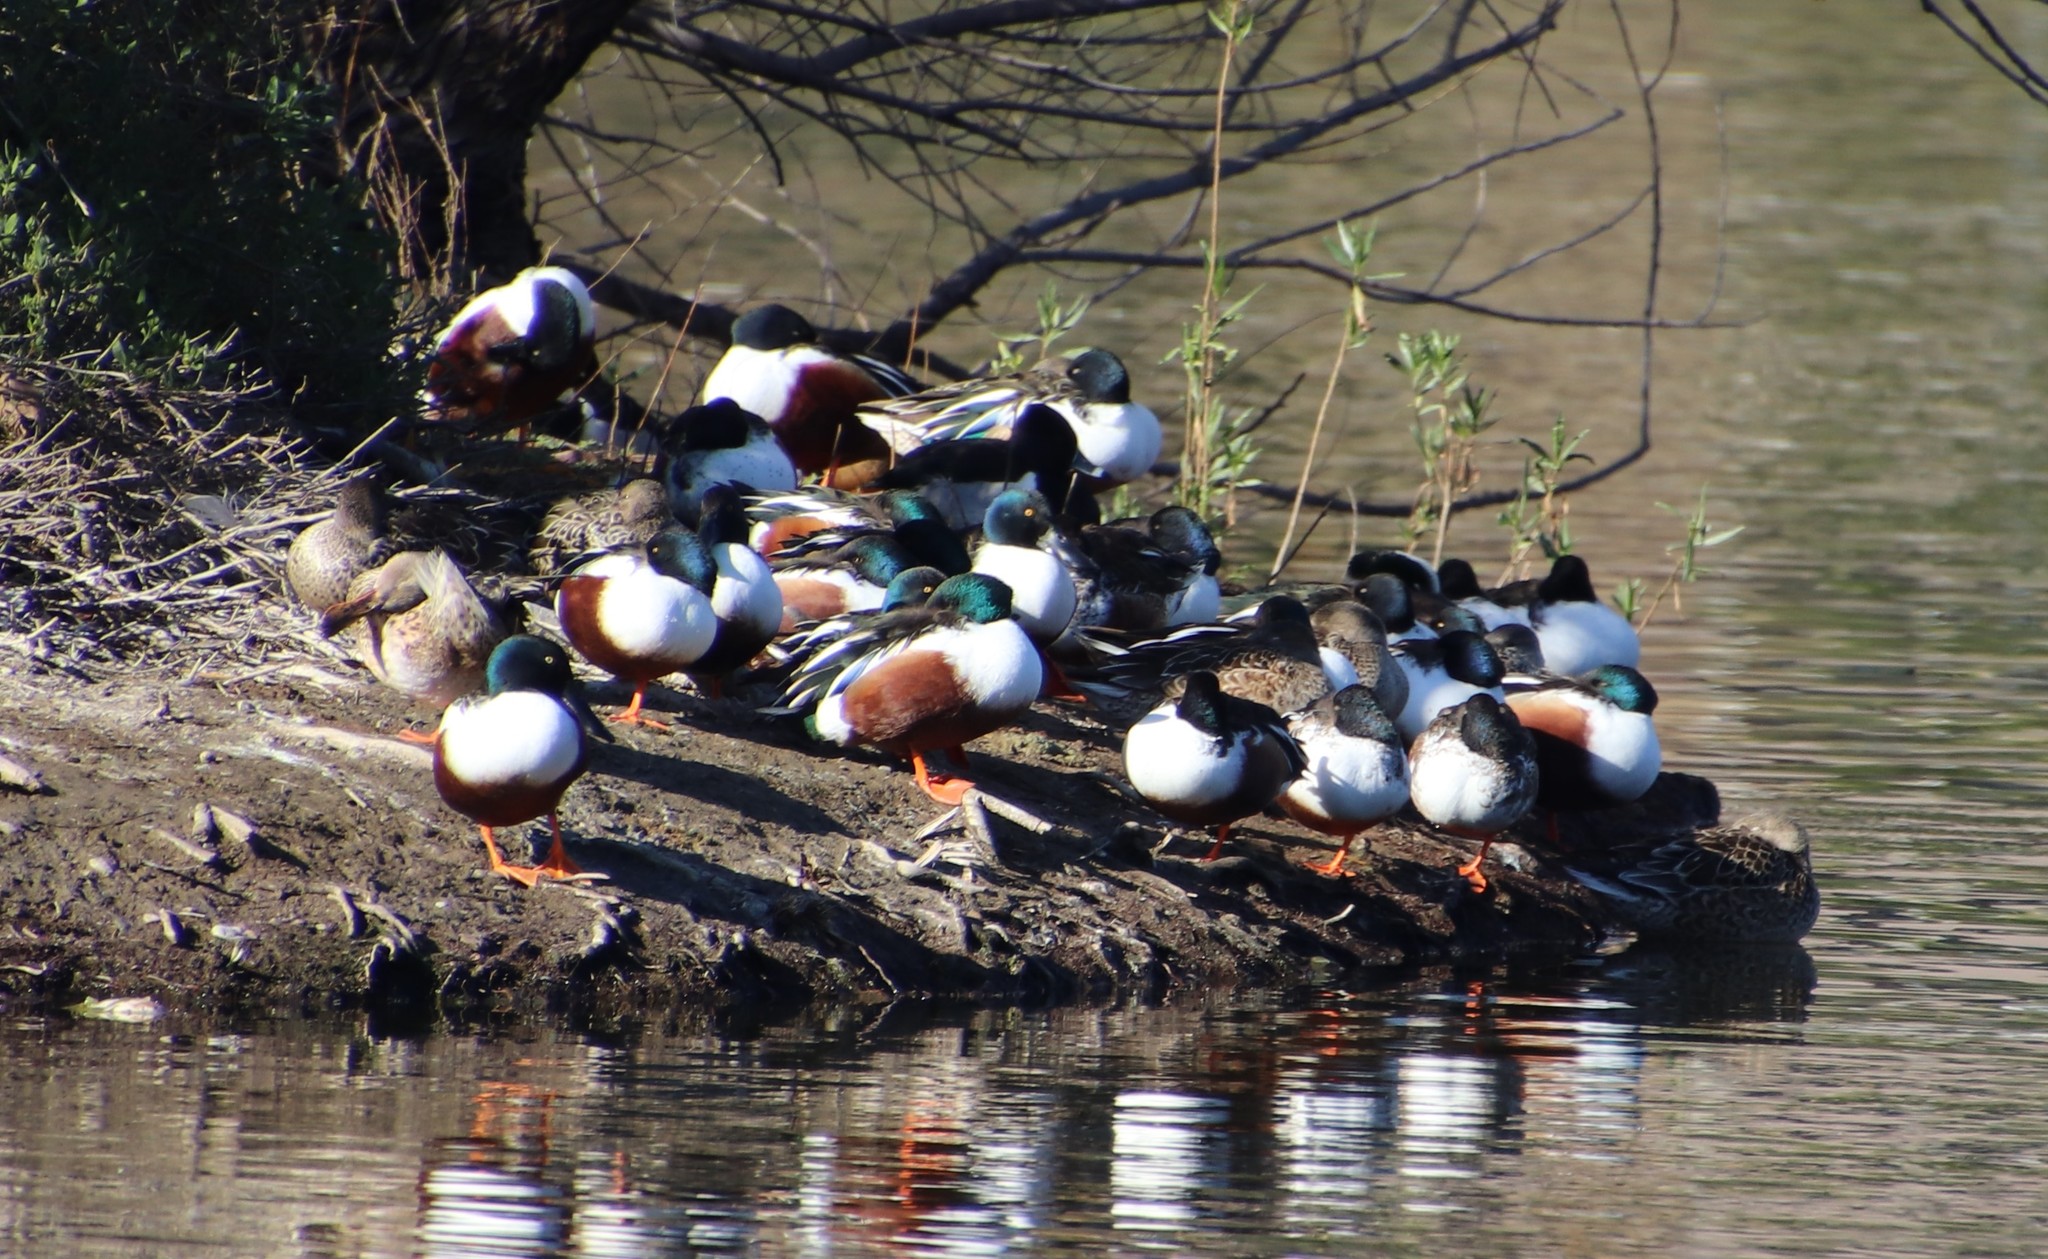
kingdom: Animalia
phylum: Chordata
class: Aves
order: Anseriformes
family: Anatidae
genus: Spatula
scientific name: Spatula clypeata
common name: Northern shoveler
